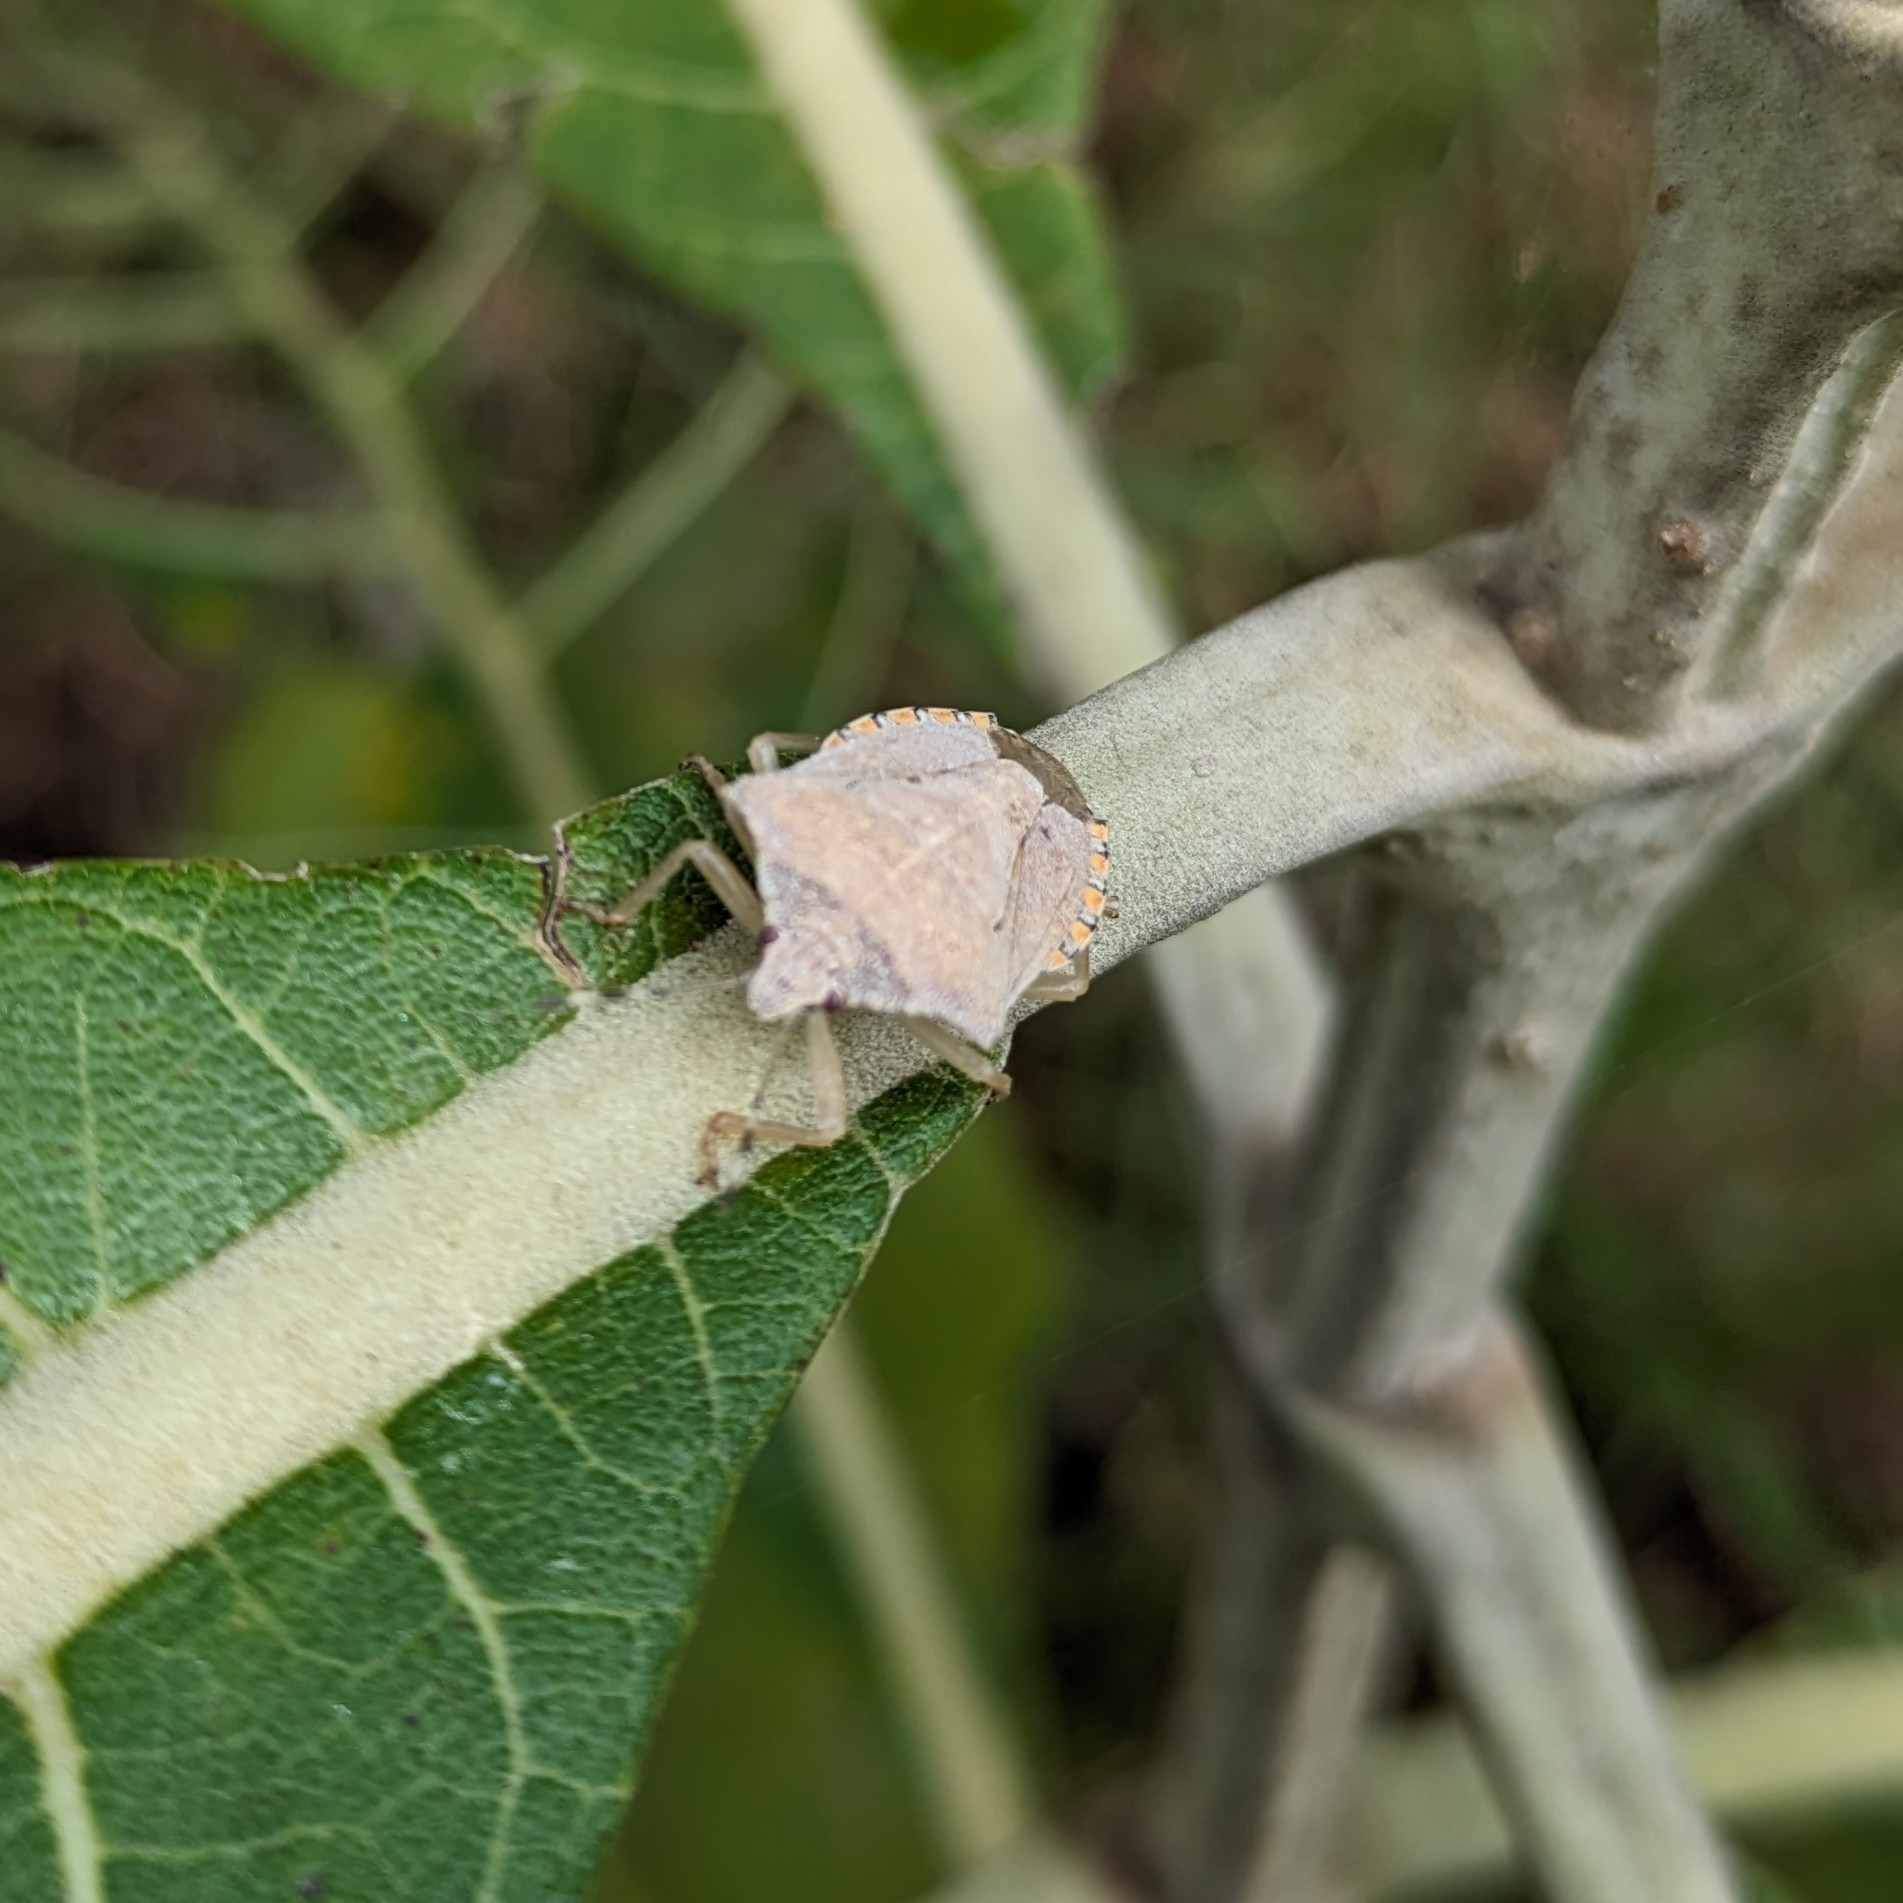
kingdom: Animalia
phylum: Arthropoda
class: Insecta
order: Hemiptera
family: Pentatomidae
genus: Degonetus
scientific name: Degonetus serratus
